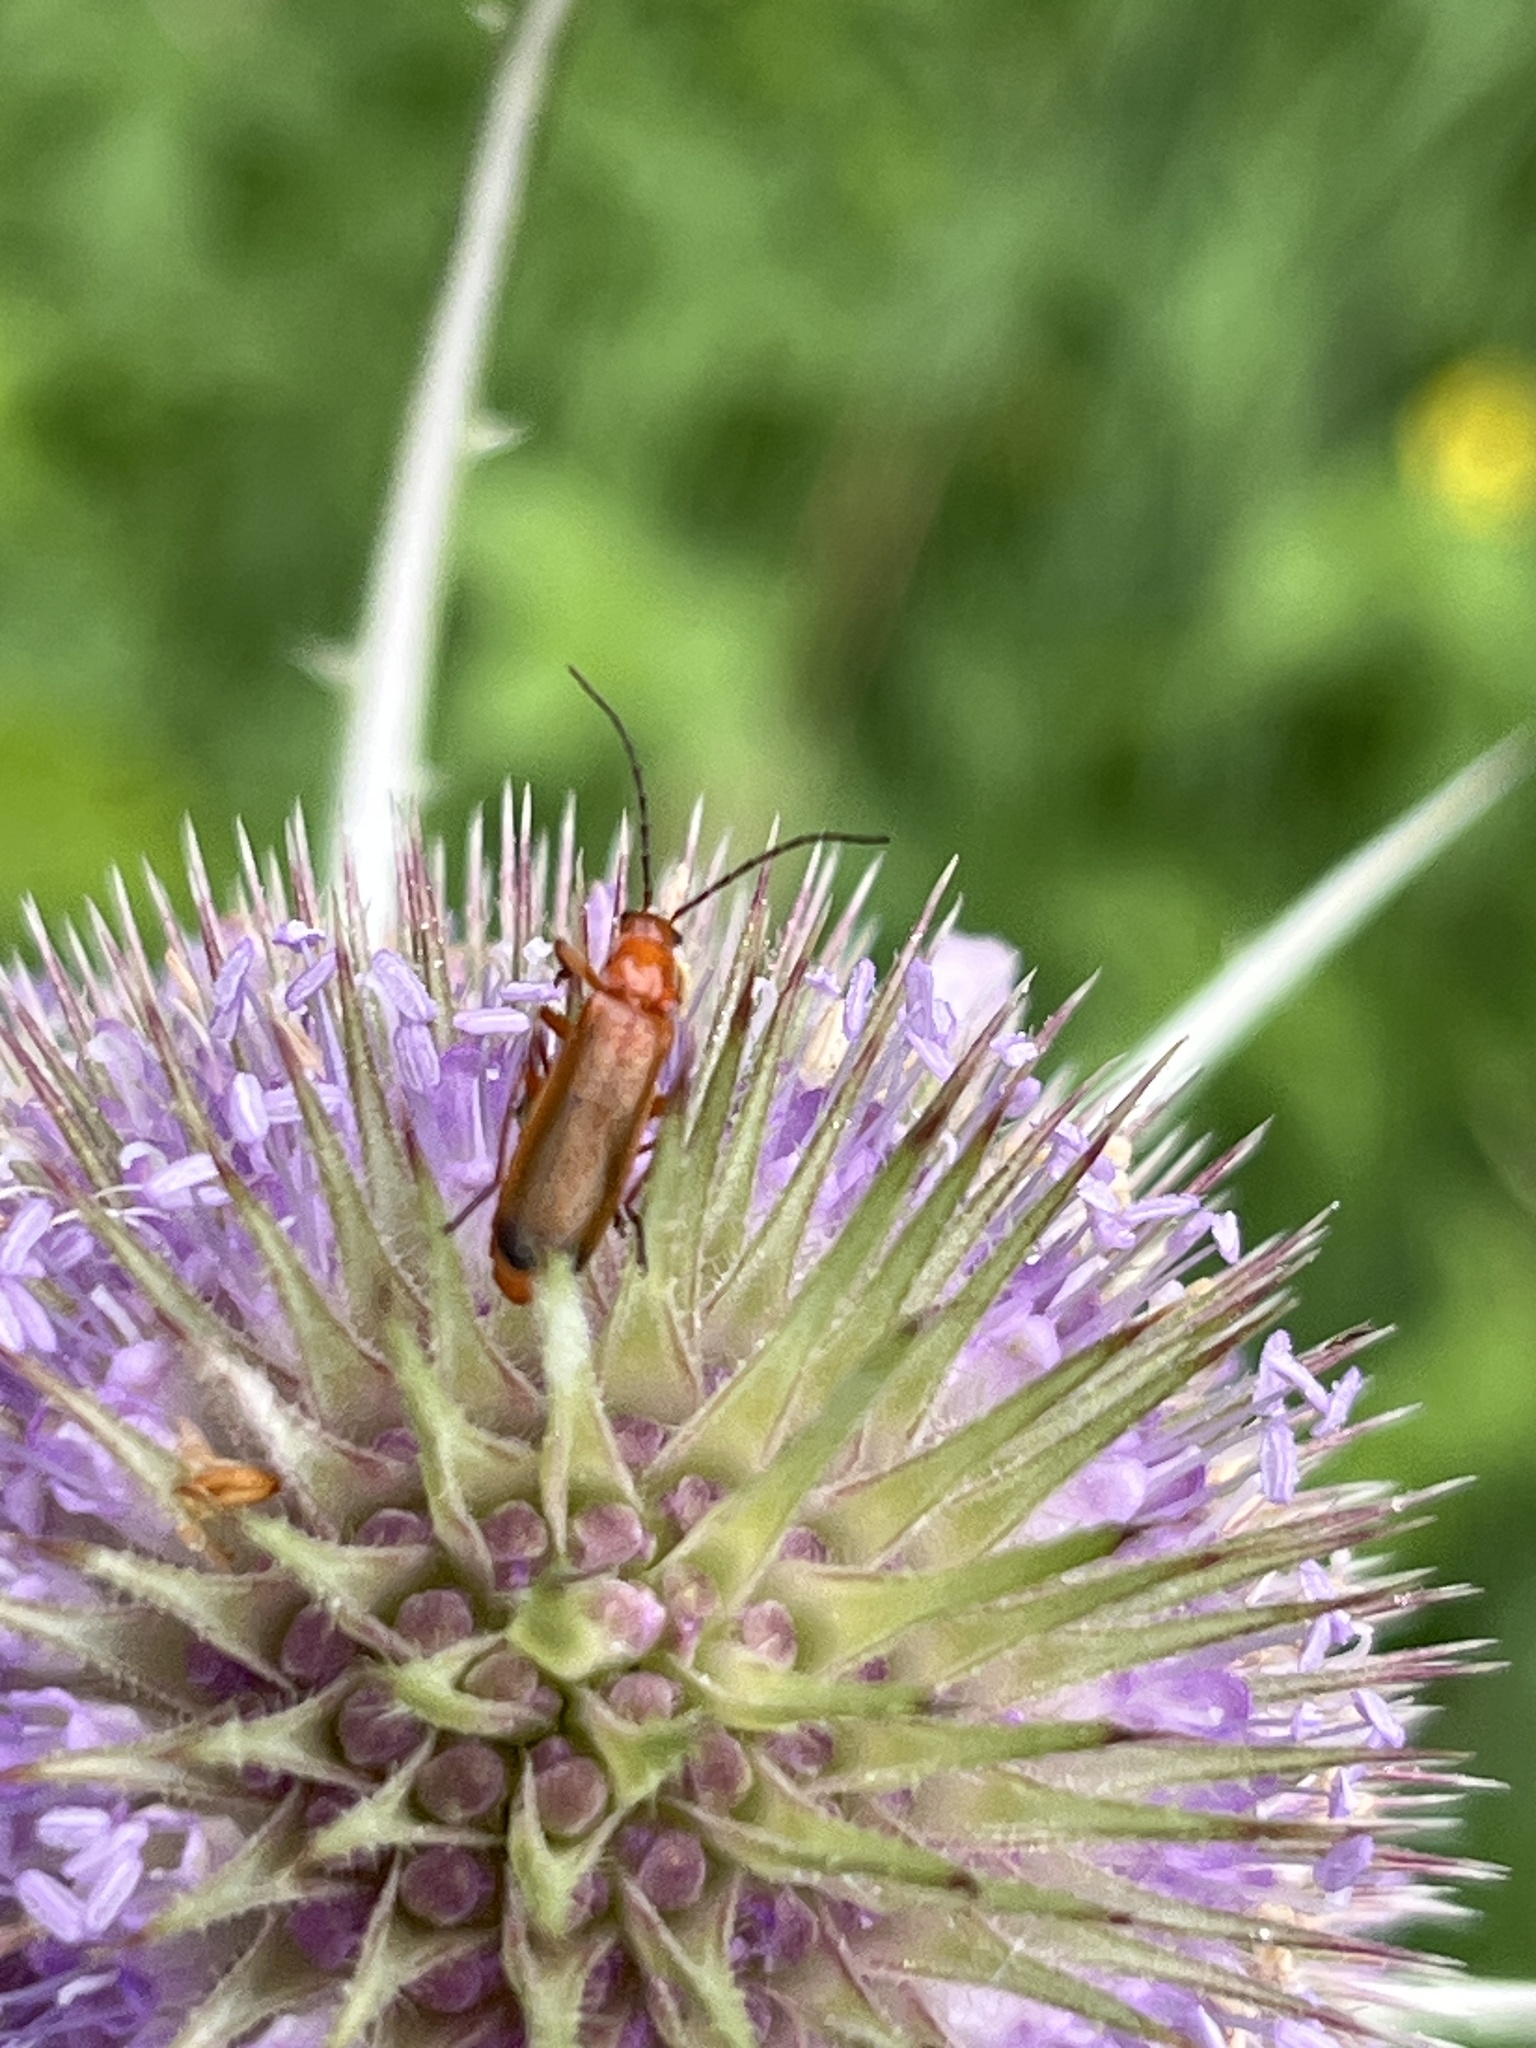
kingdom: Animalia
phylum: Arthropoda
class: Insecta
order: Coleoptera
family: Cantharidae
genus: Rhagonycha
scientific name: Rhagonycha fulva
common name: Common red soldier beetle
